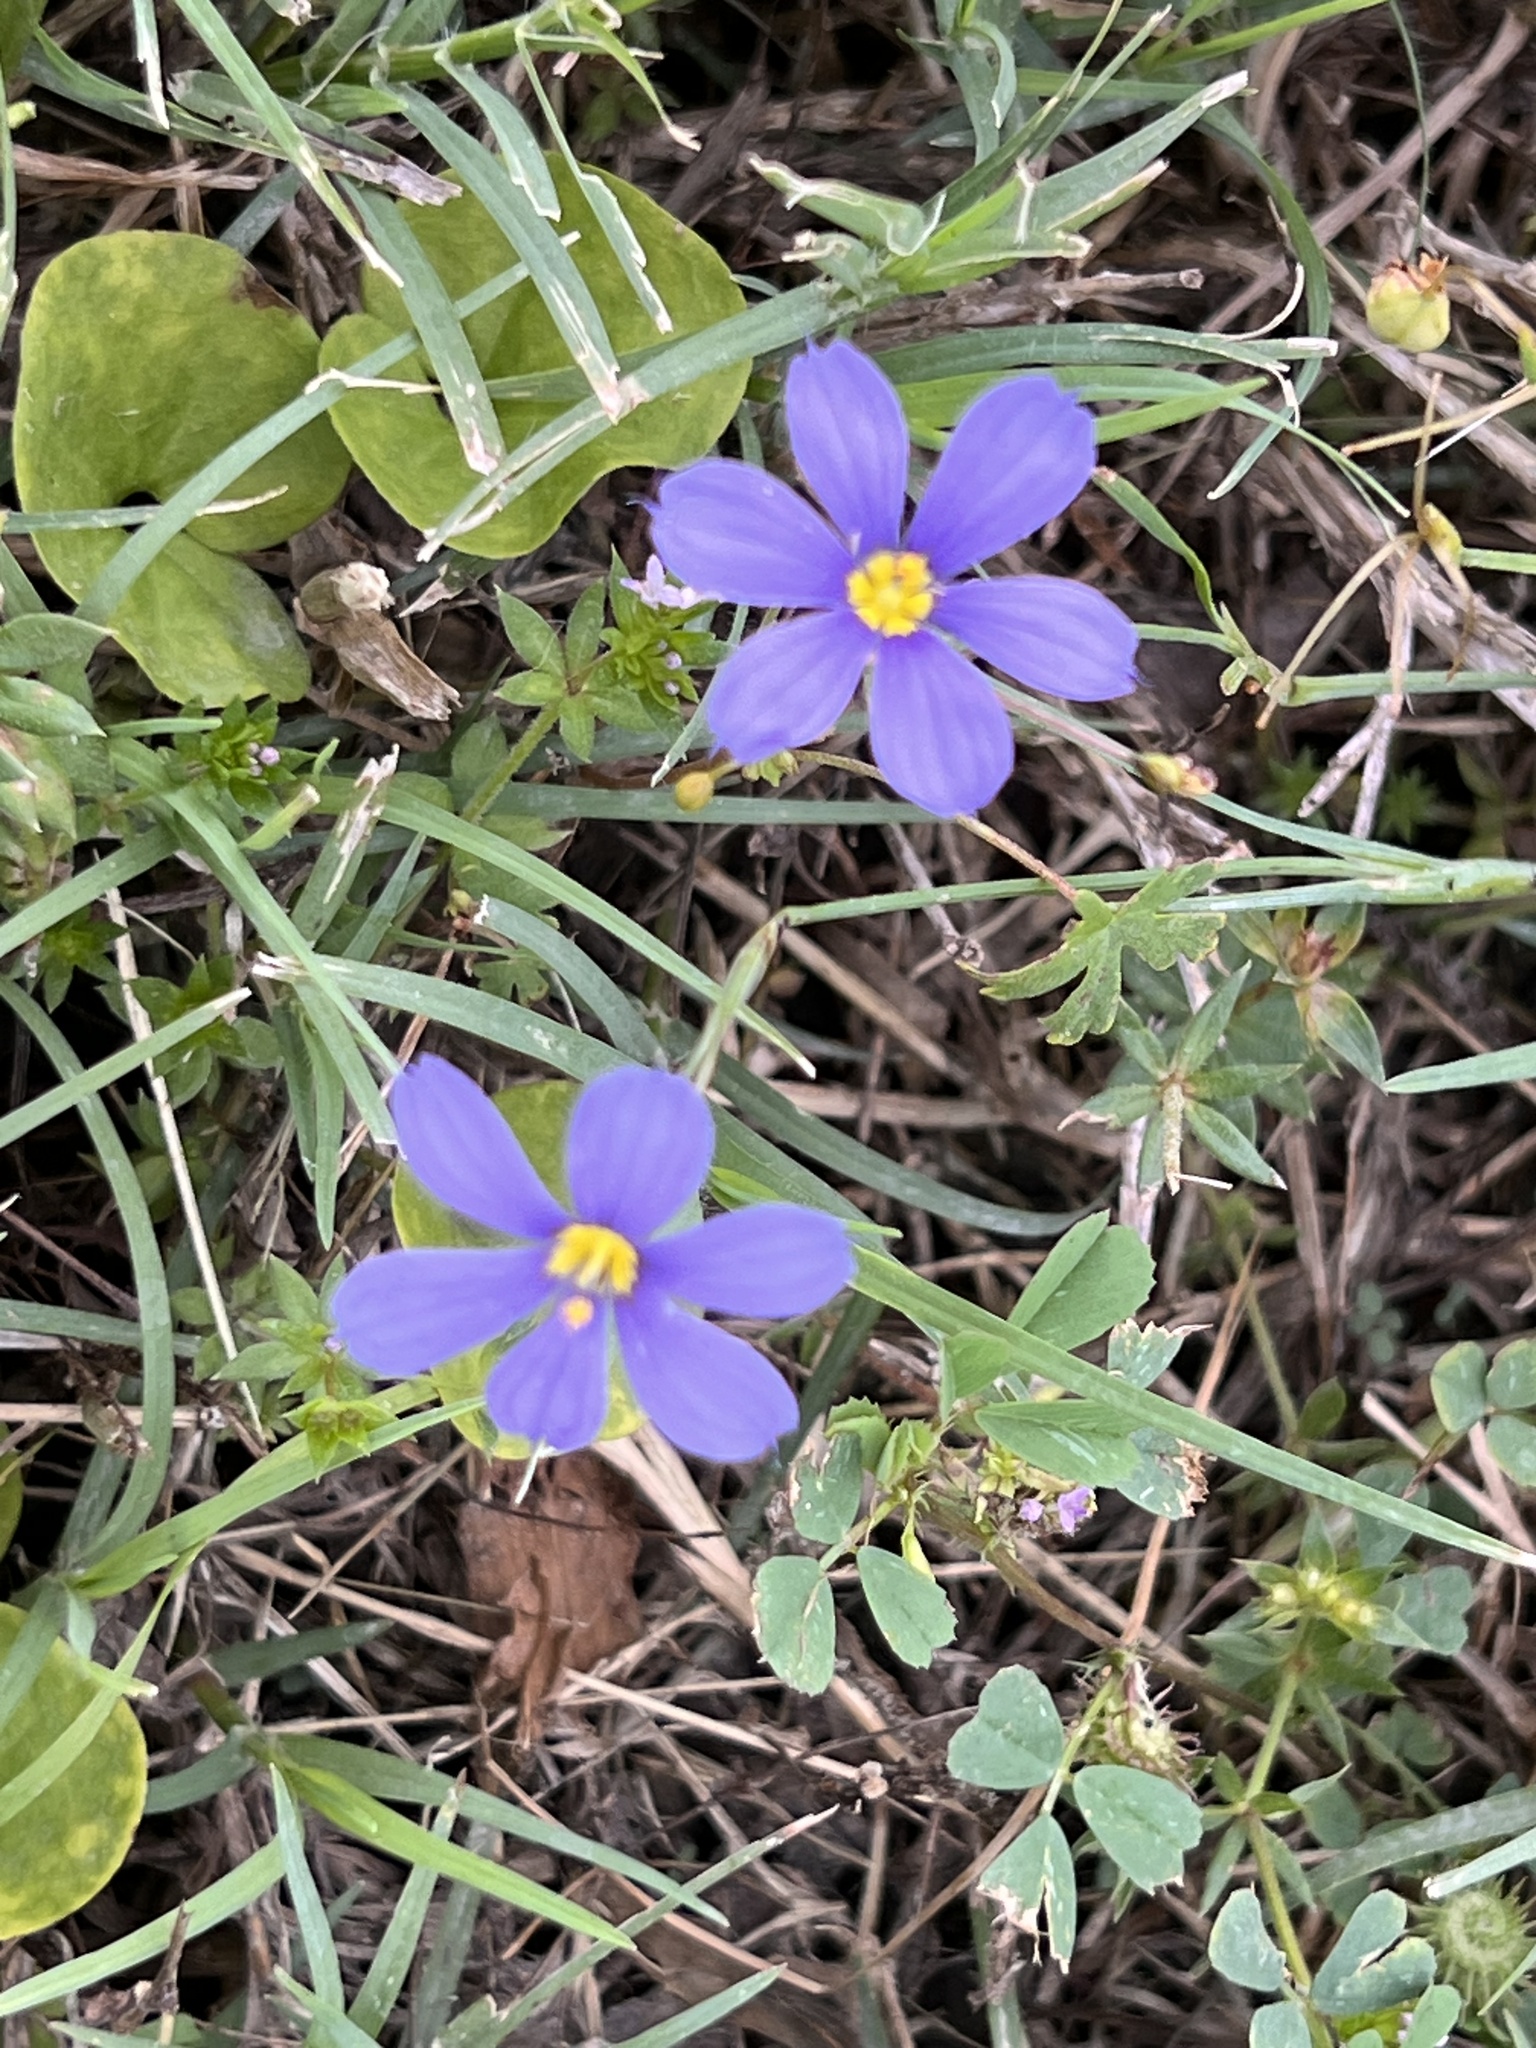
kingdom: Plantae
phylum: Tracheophyta
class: Liliopsida
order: Asparagales
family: Iridaceae
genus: Sisyrinchium
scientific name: Sisyrinchium pruinosum
